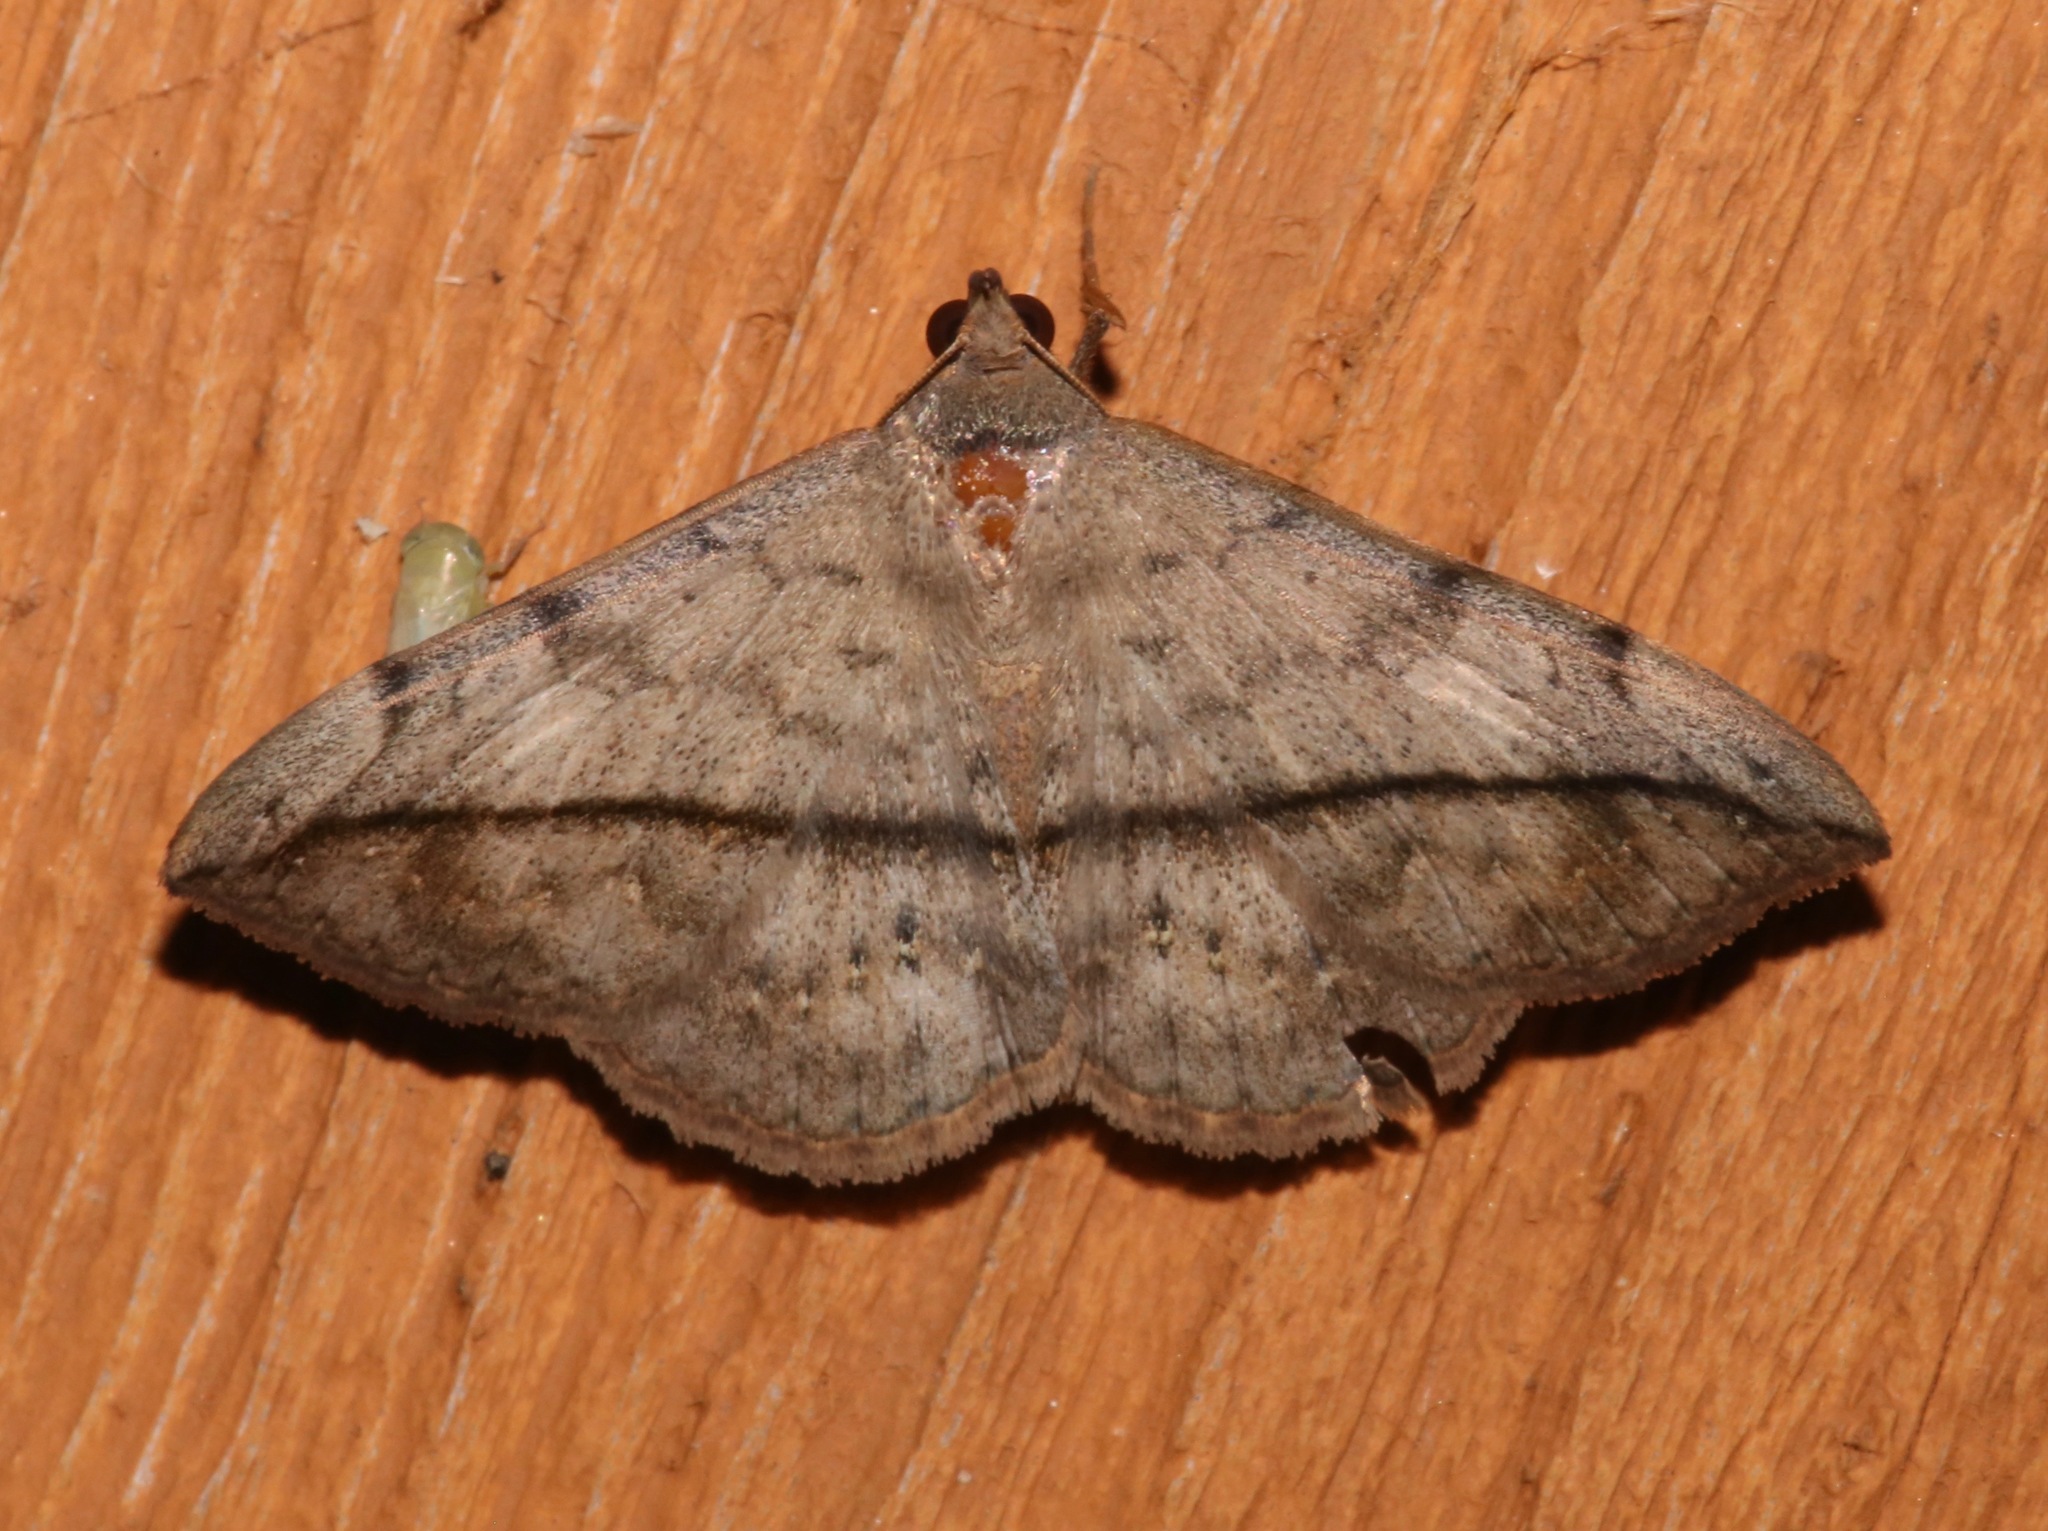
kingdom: Animalia
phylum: Arthropoda
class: Insecta
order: Lepidoptera
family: Erebidae
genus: Anticarsia
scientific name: Anticarsia gemmatalis
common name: Cutworm moth
